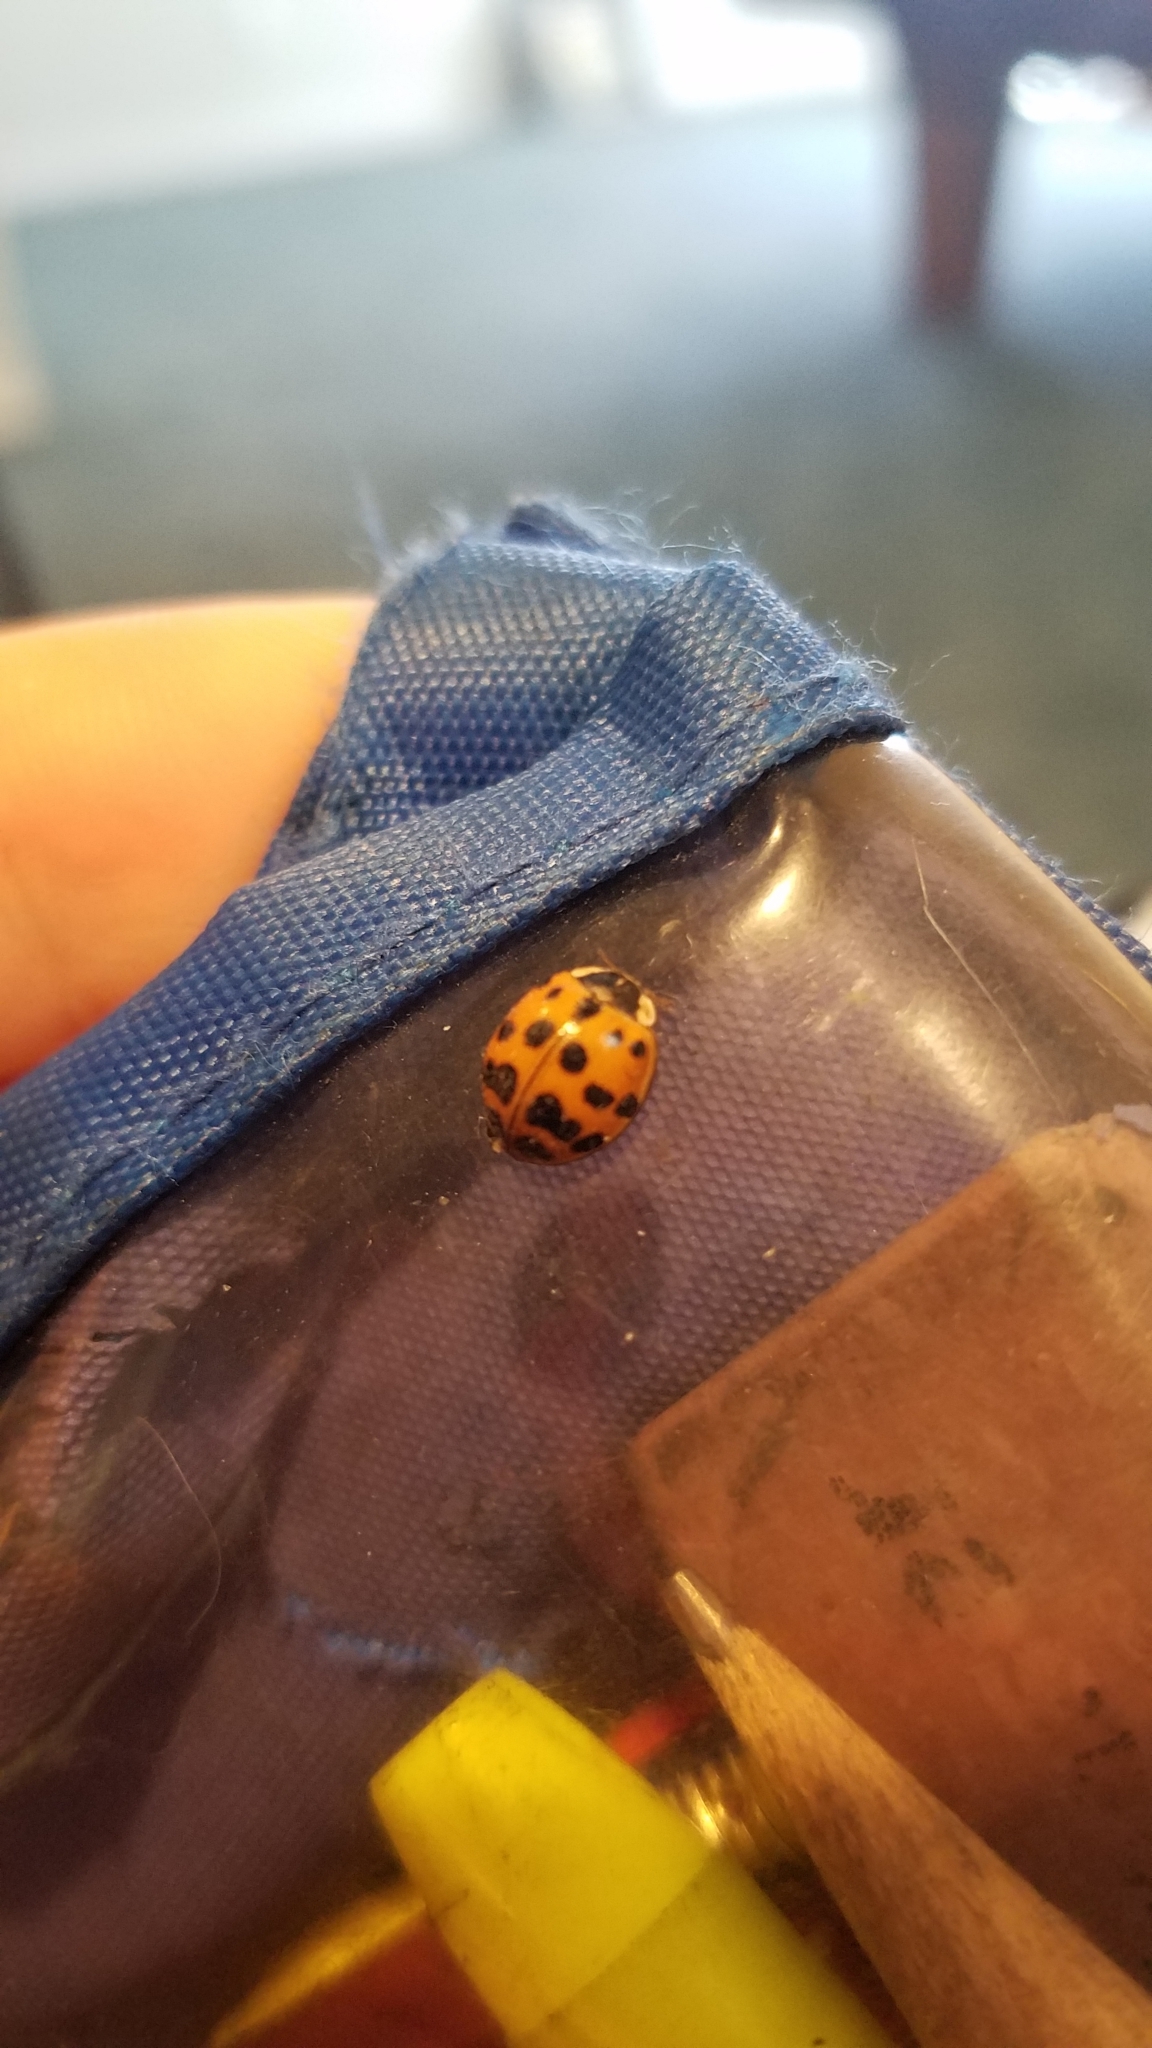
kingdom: Animalia
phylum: Arthropoda
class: Insecta
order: Coleoptera
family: Coccinellidae
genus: Harmonia
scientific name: Harmonia axyridis
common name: Harlequin ladybird
